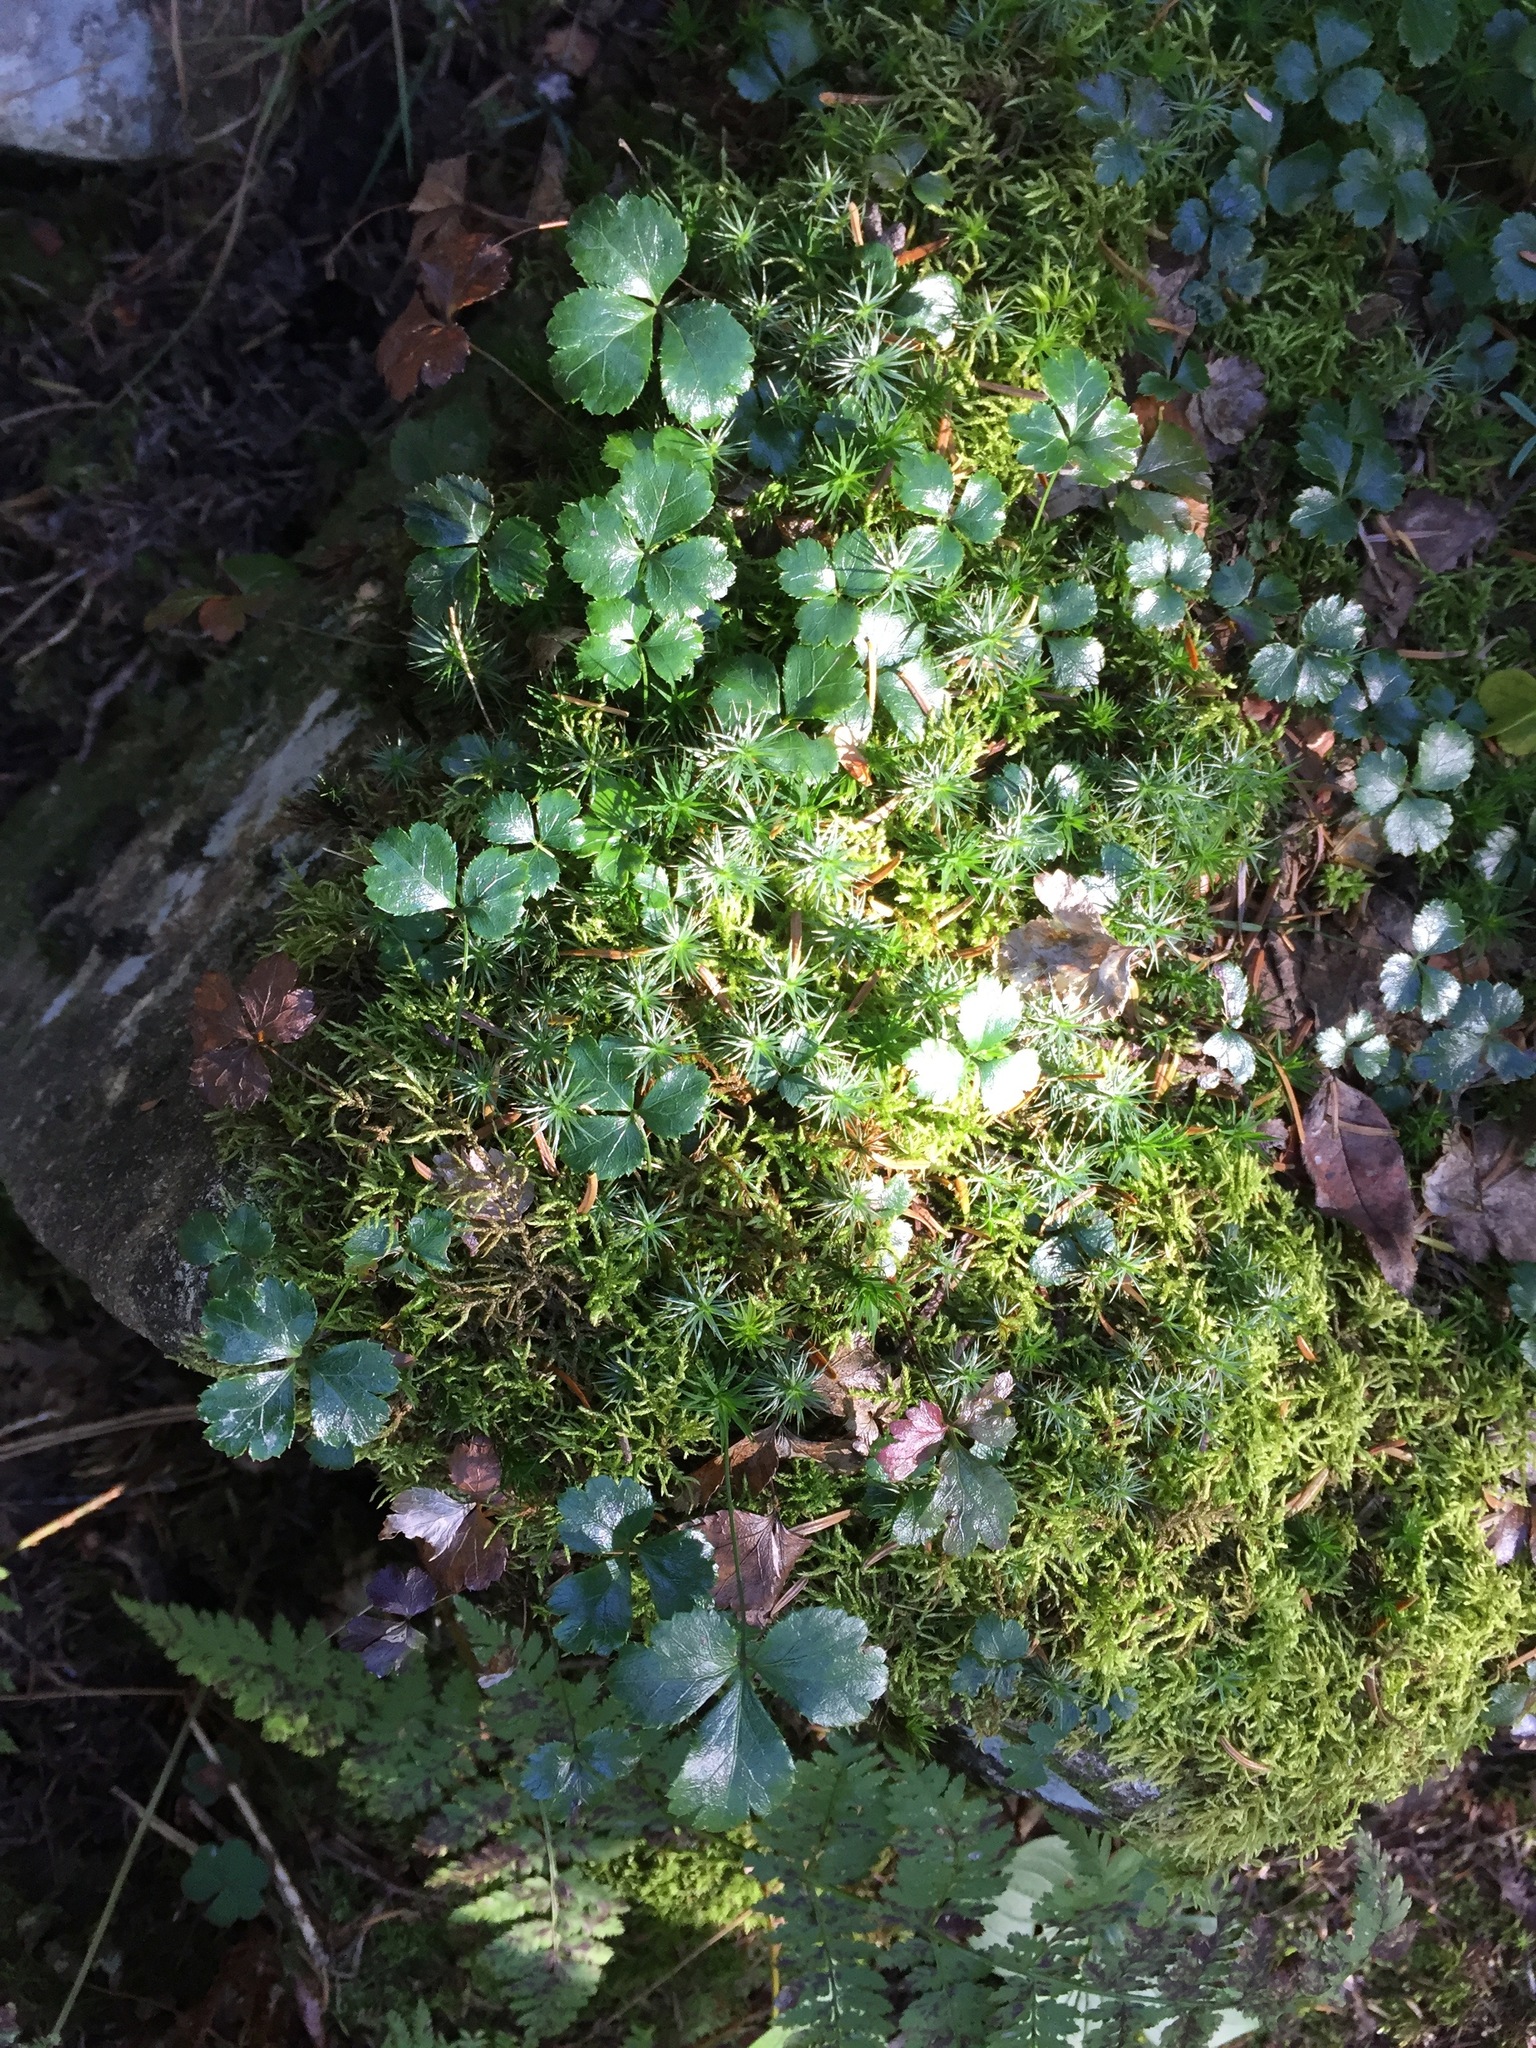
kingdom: Plantae
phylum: Tracheophyta
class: Magnoliopsida
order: Ranunculales
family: Ranunculaceae
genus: Coptis
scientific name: Coptis trifolia
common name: Canker-root
